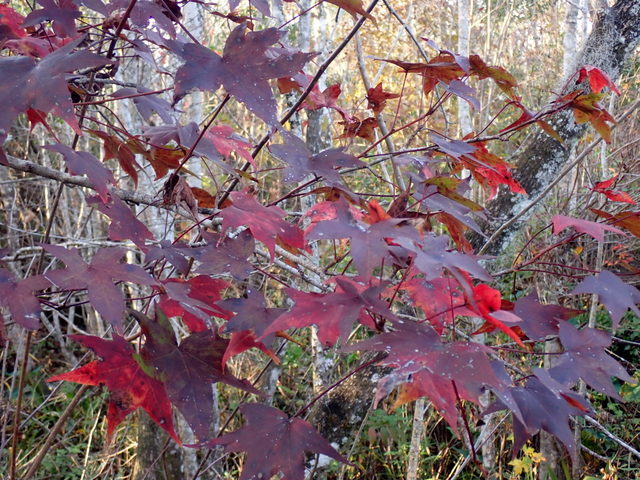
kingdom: Plantae
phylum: Tracheophyta
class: Magnoliopsida
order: Saxifragales
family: Altingiaceae
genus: Liquidambar
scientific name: Liquidambar styraciflua
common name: Sweet gum
